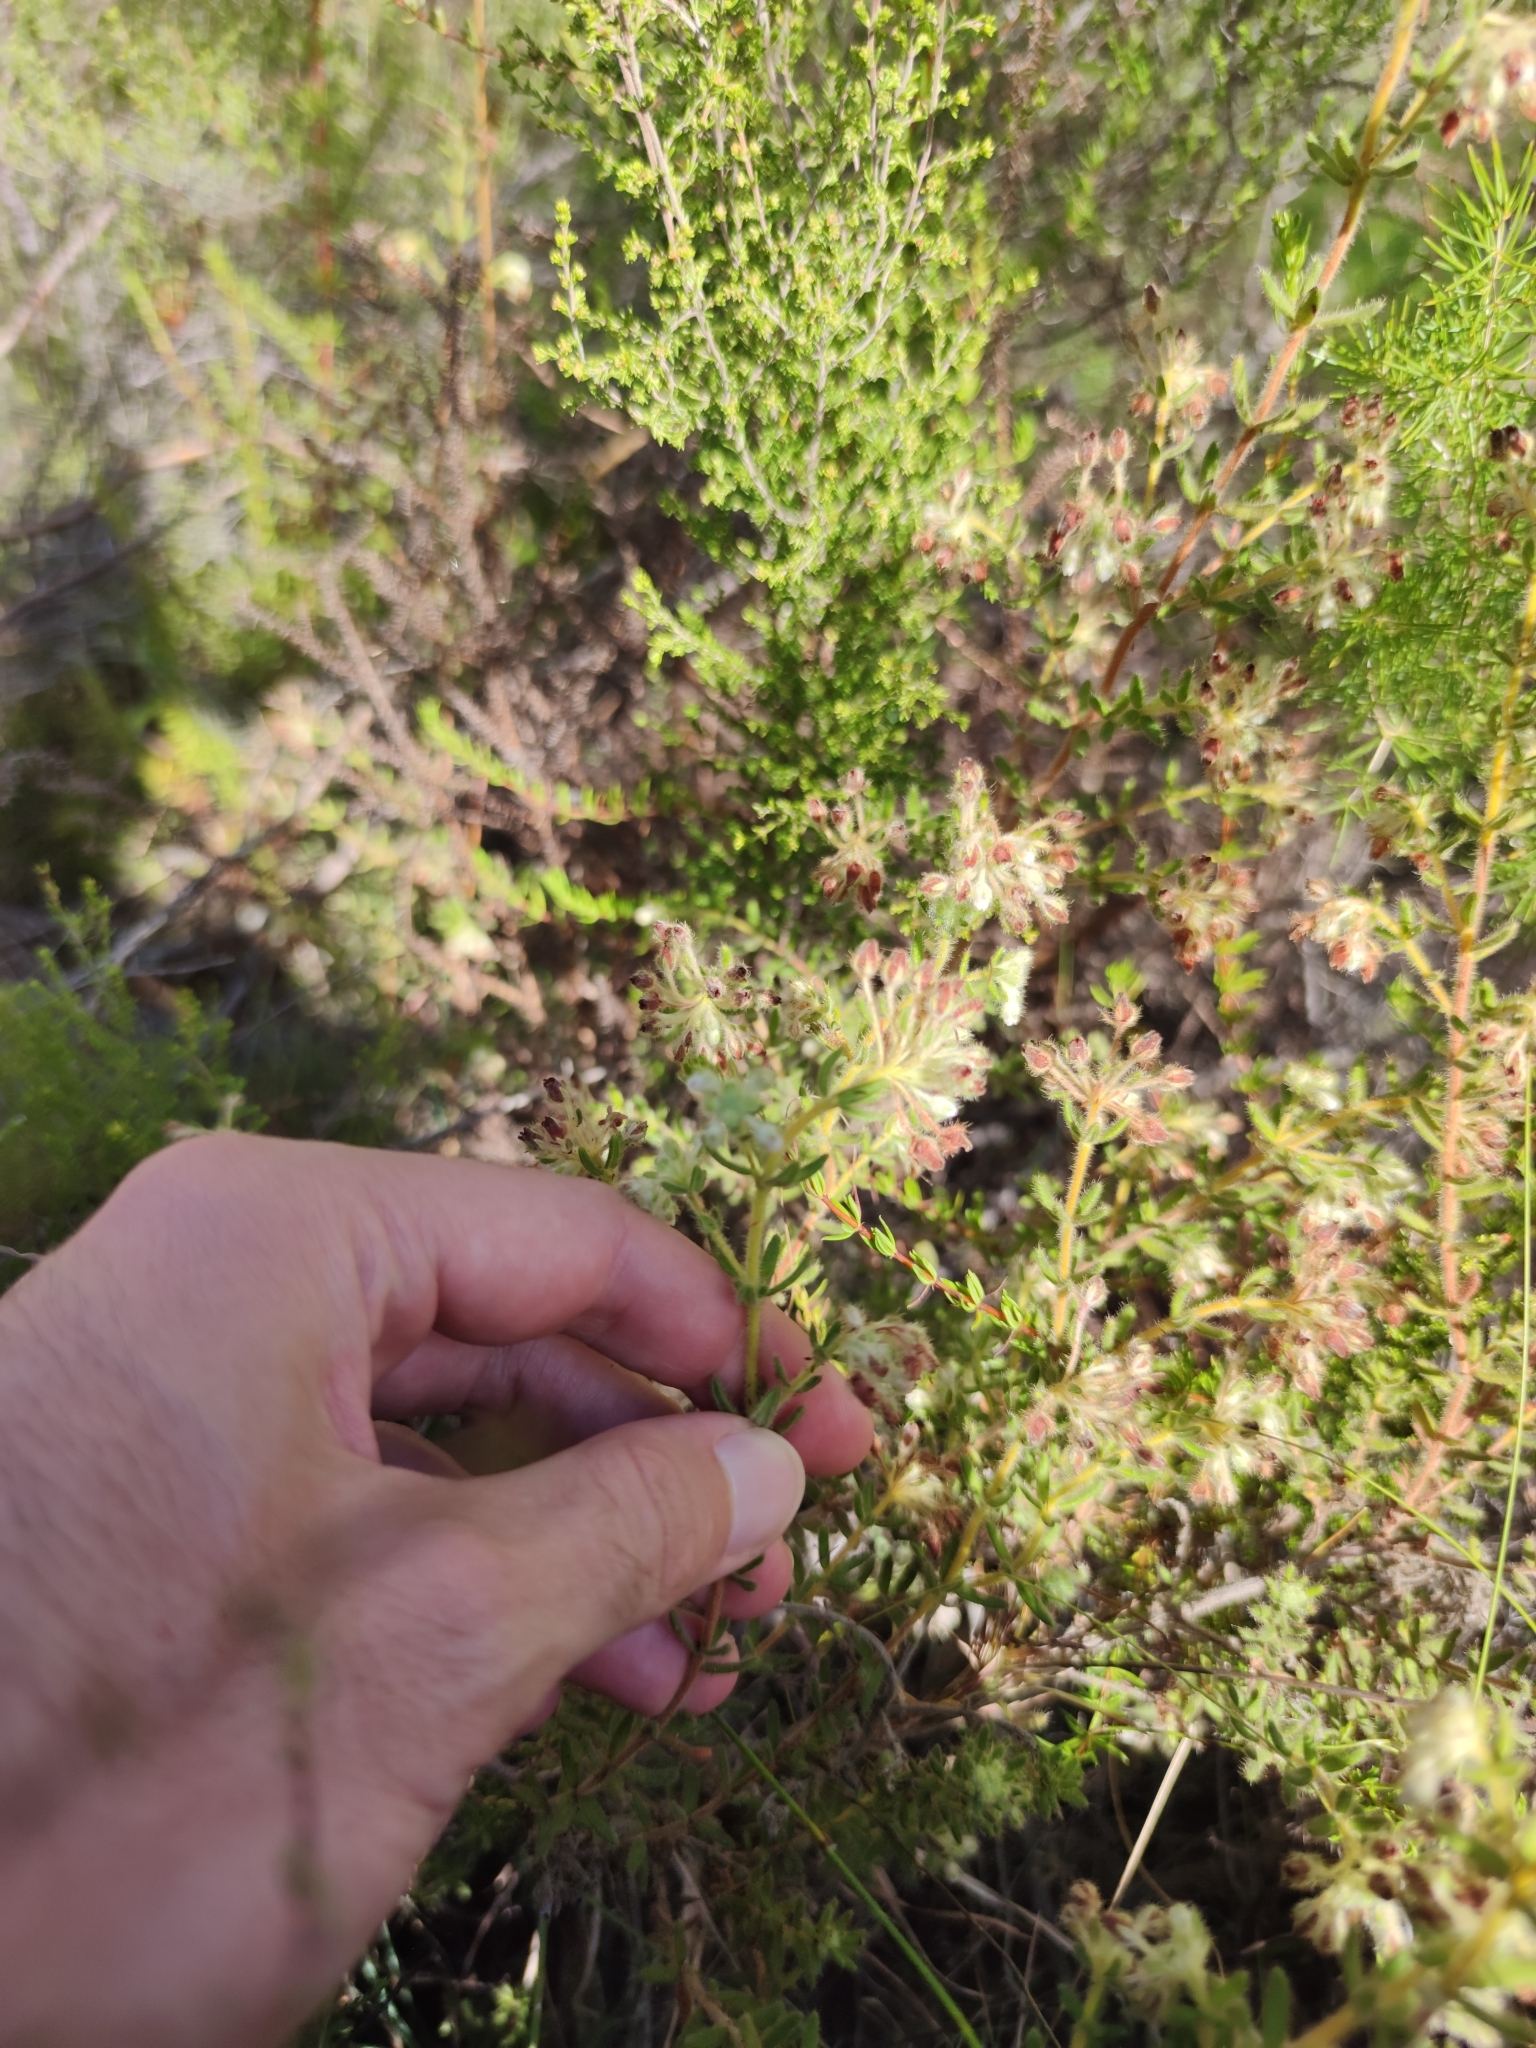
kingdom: Plantae
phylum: Tracheophyta
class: Magnoliopsida
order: Ericales
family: Ericaceae
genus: Erica
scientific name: Erica pannosa
